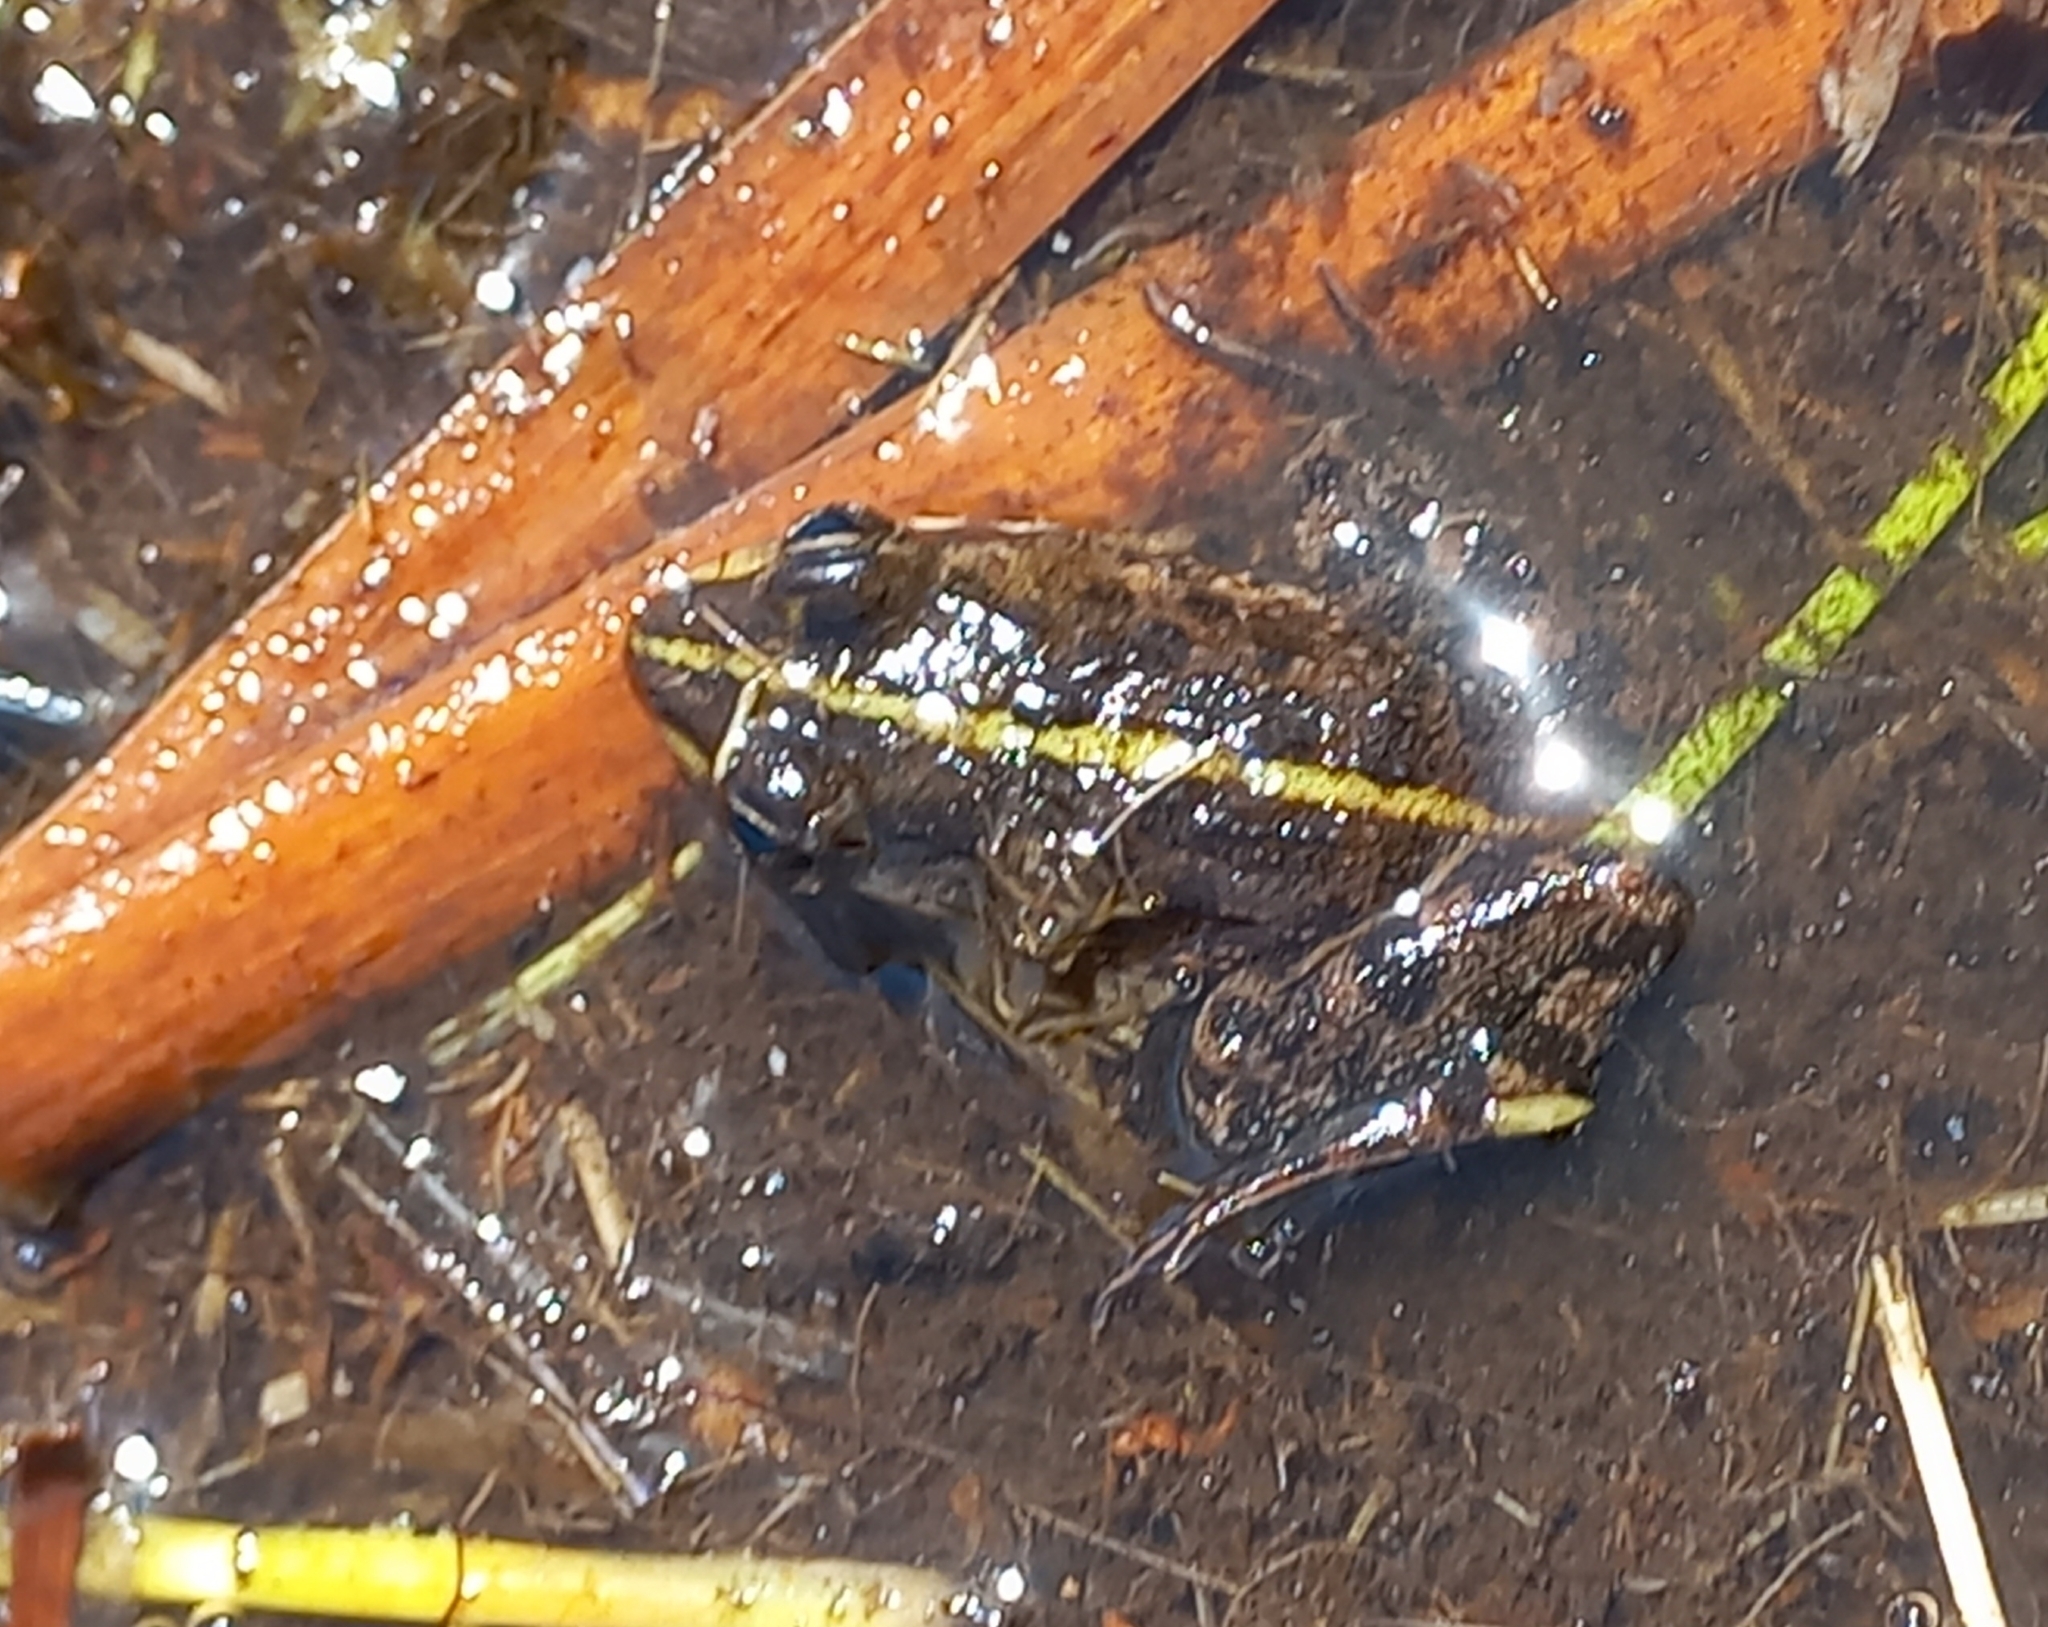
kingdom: Animalia
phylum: Chordata
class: Amphibia
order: Anura
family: Pyxicephalidae
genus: Amietia
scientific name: Amietia fuscigula
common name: Cape rana
